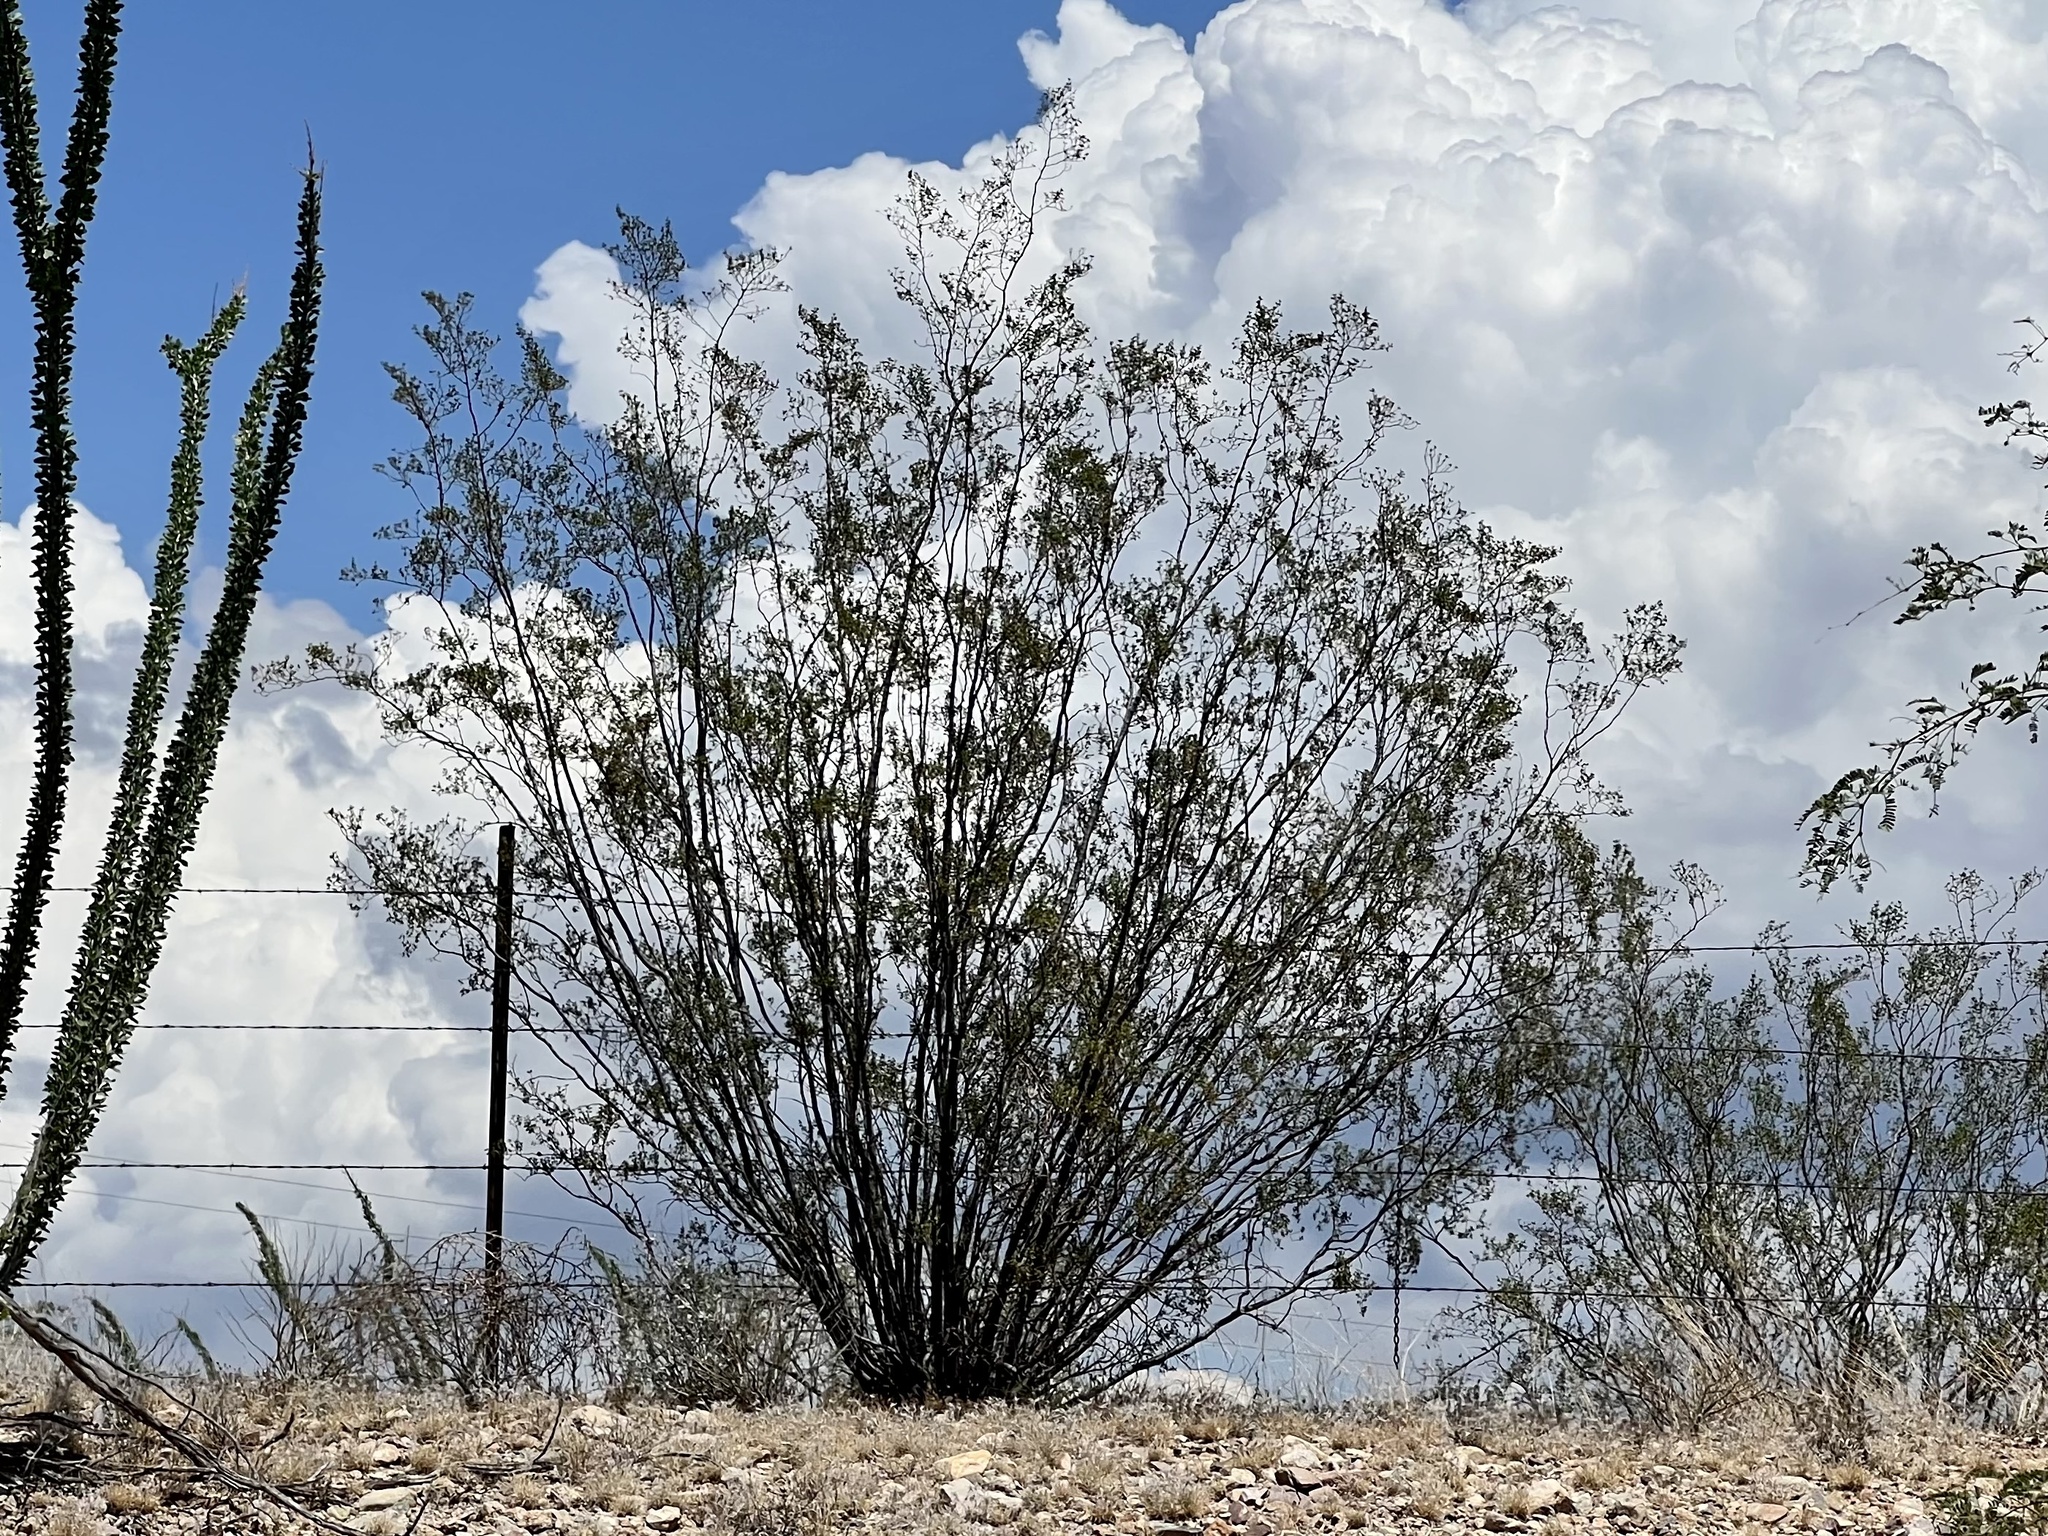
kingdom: Plantae
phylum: Tracheophyta
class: Magnoliopsida
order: Zygophyllales
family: Zygophyllaceae
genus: Larrea
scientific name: Larrea tridentata
